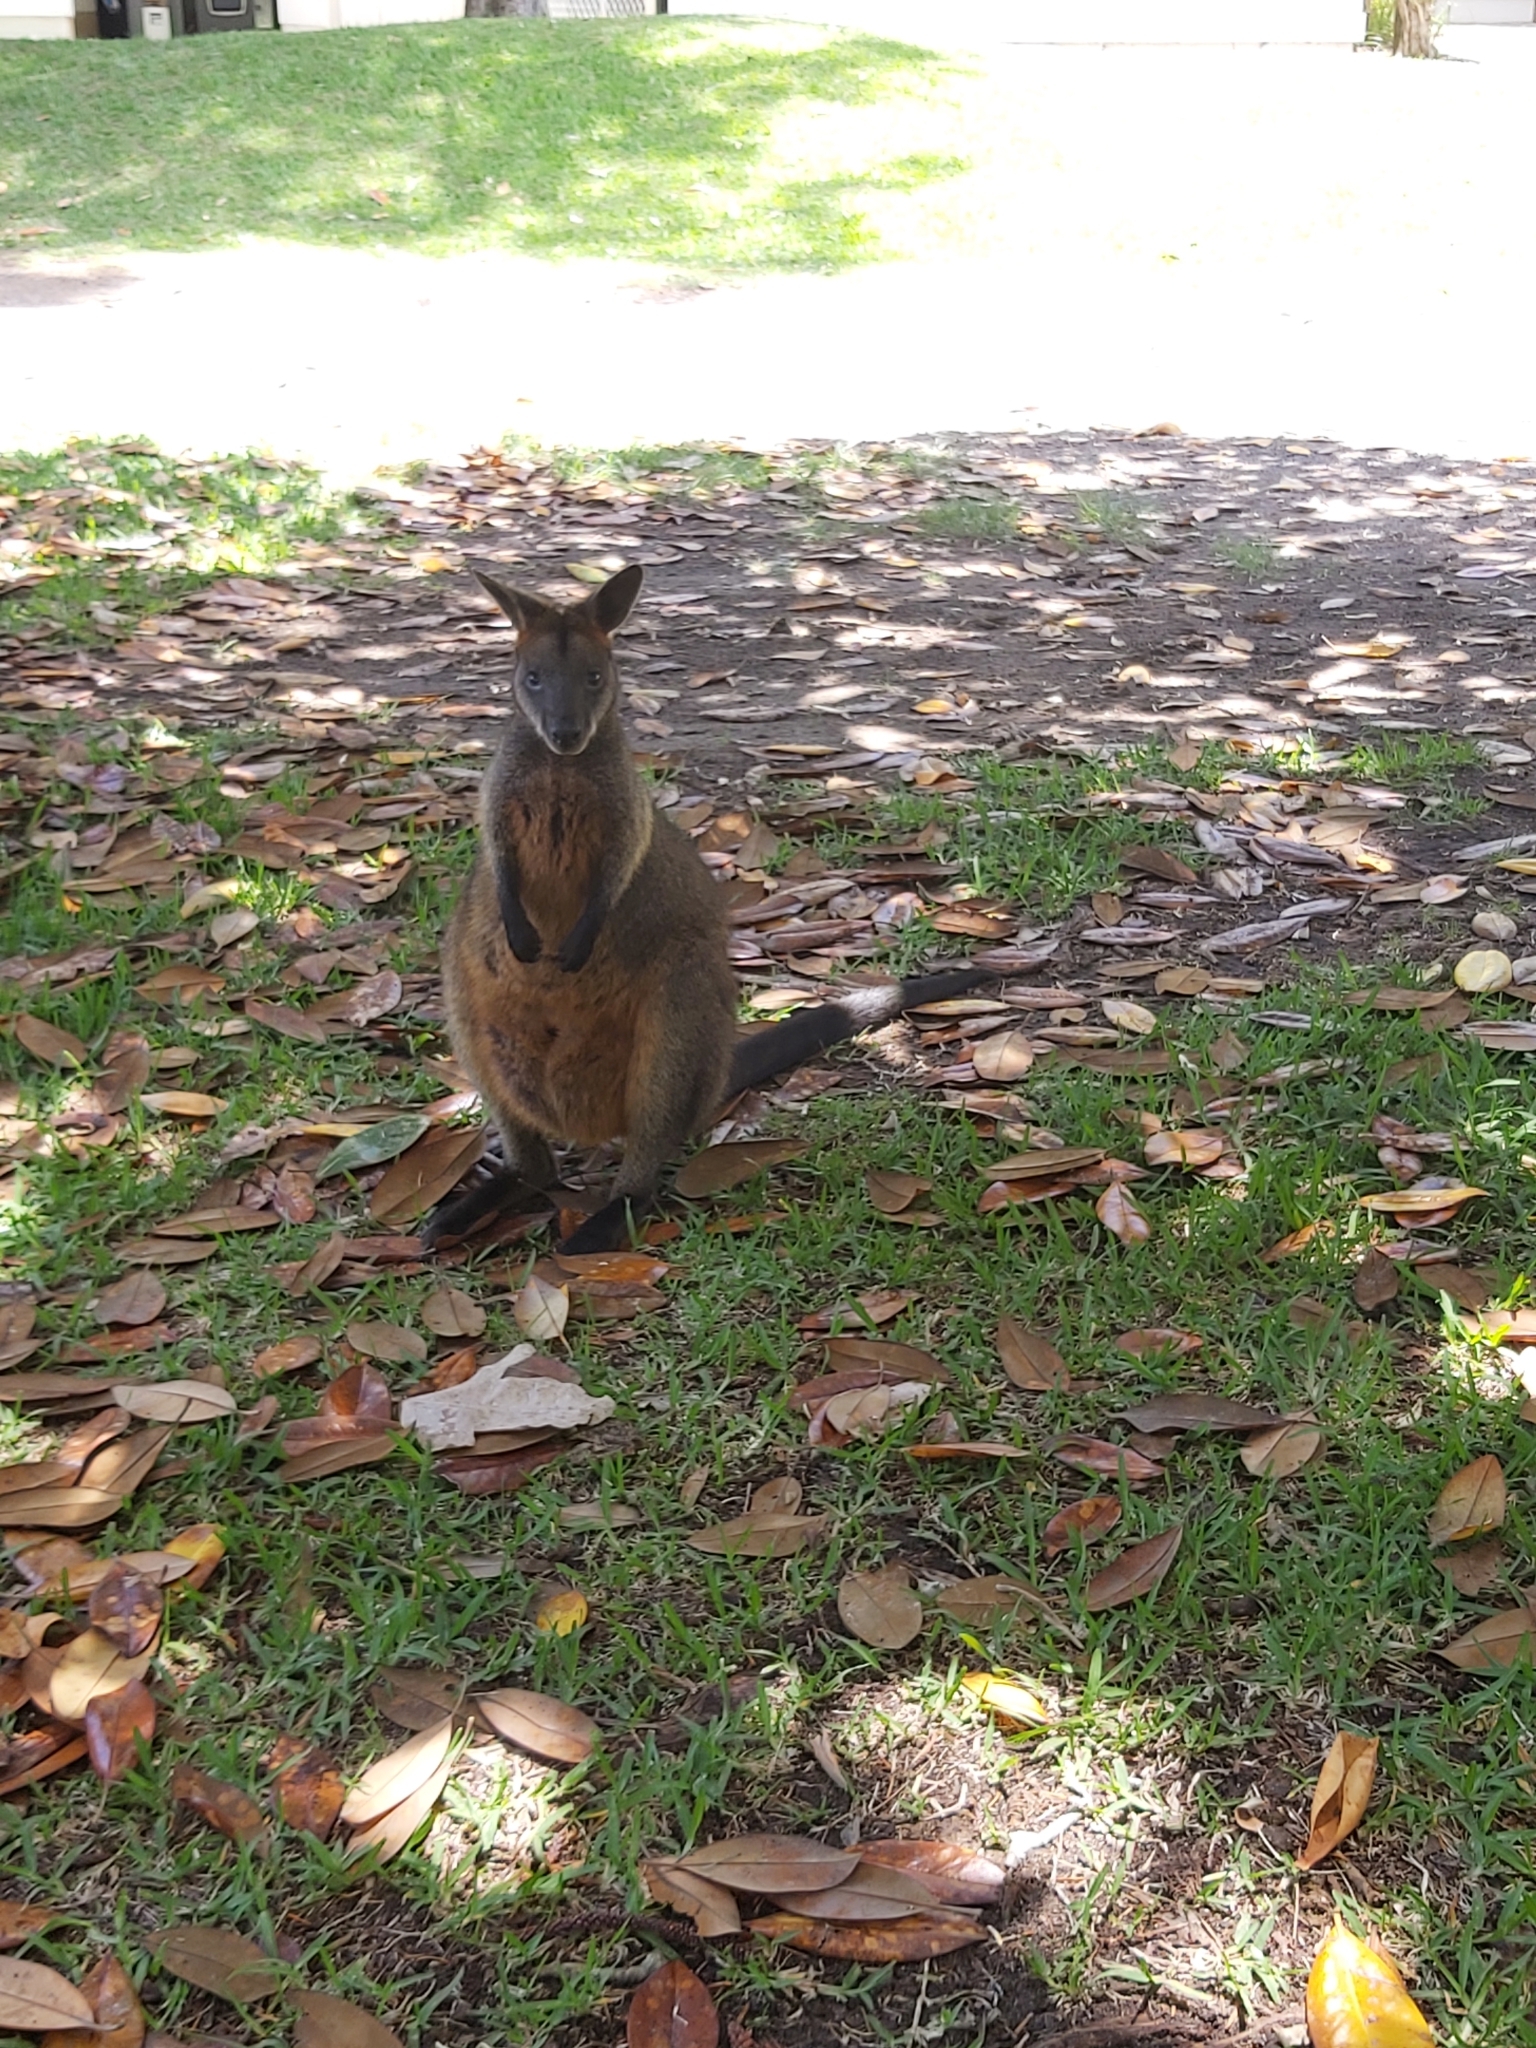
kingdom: Animalia
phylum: Chordata
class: Mammalia
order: Diprotodontia
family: Macropodidae
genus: Wallabia
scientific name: Wallabia bicolor
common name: Swamp wallaby
